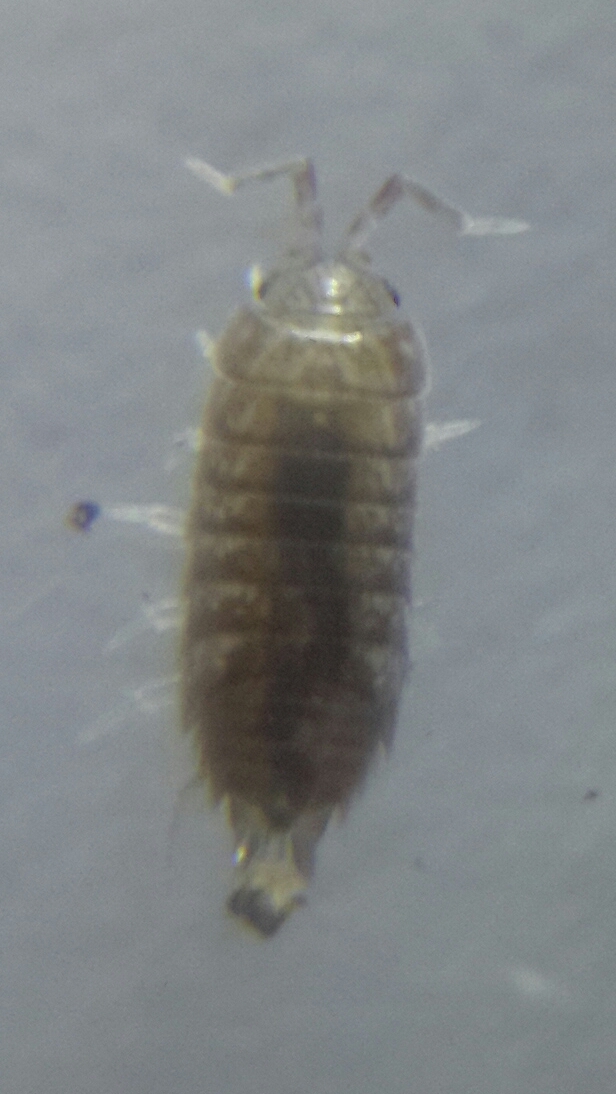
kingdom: Animalia
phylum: Arthropoda
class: Malacostraca
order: Isopoda
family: Platyarthridae
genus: Niambia
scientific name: Niambia capensis
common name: Isopod
